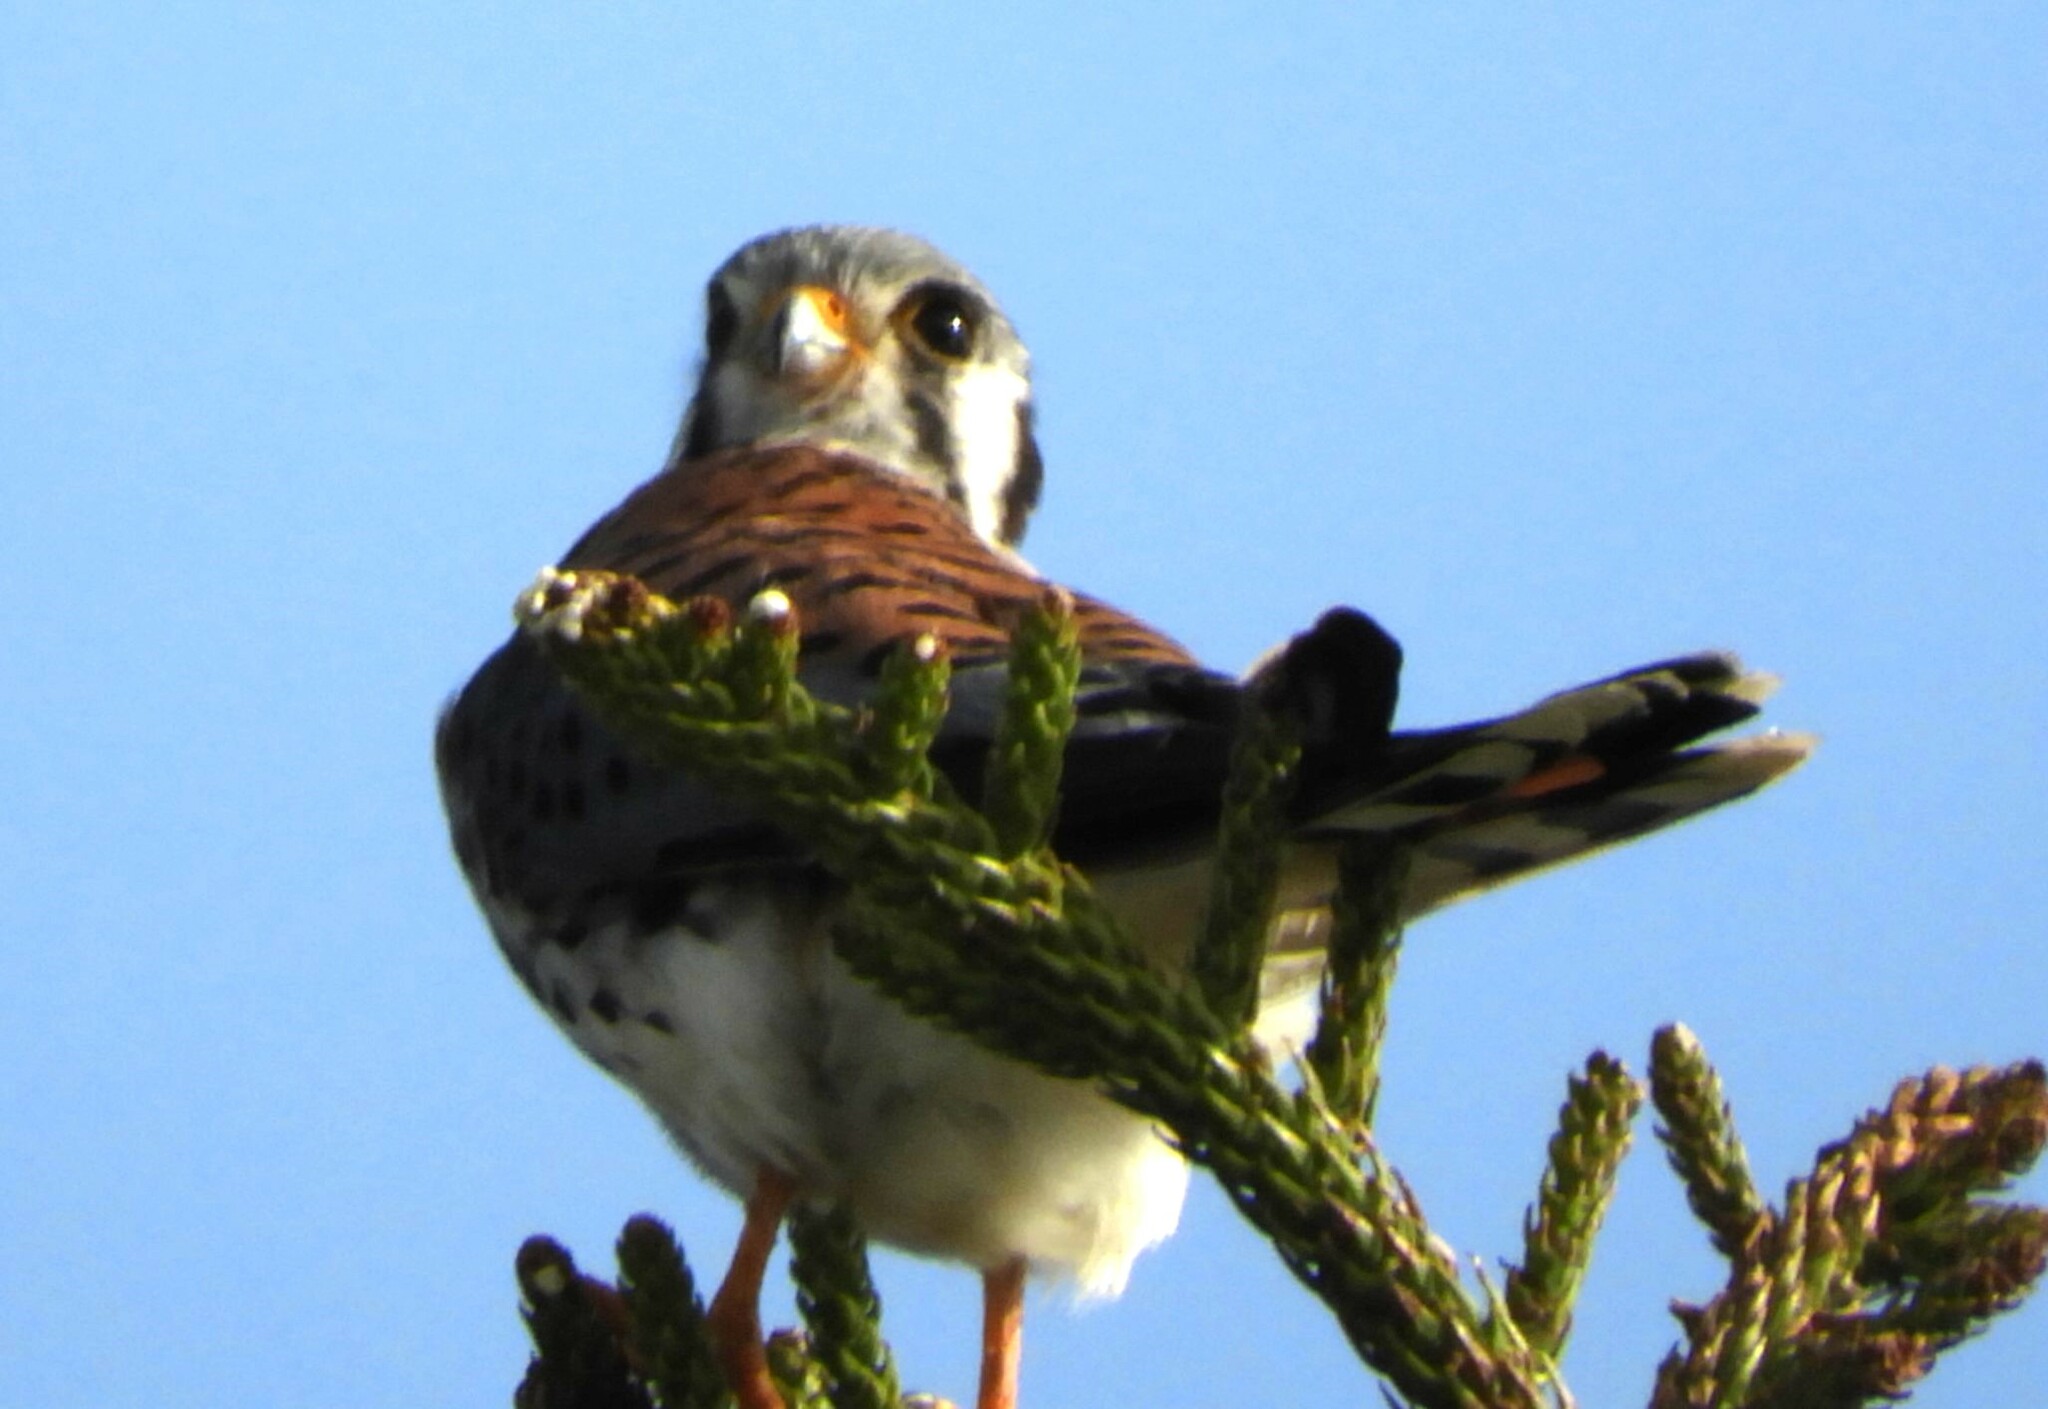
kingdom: Animalia
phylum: Chordata
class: Aves
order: Falconiformes
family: Falconidae
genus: Falco
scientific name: Falco sparverius
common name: American kestrel
